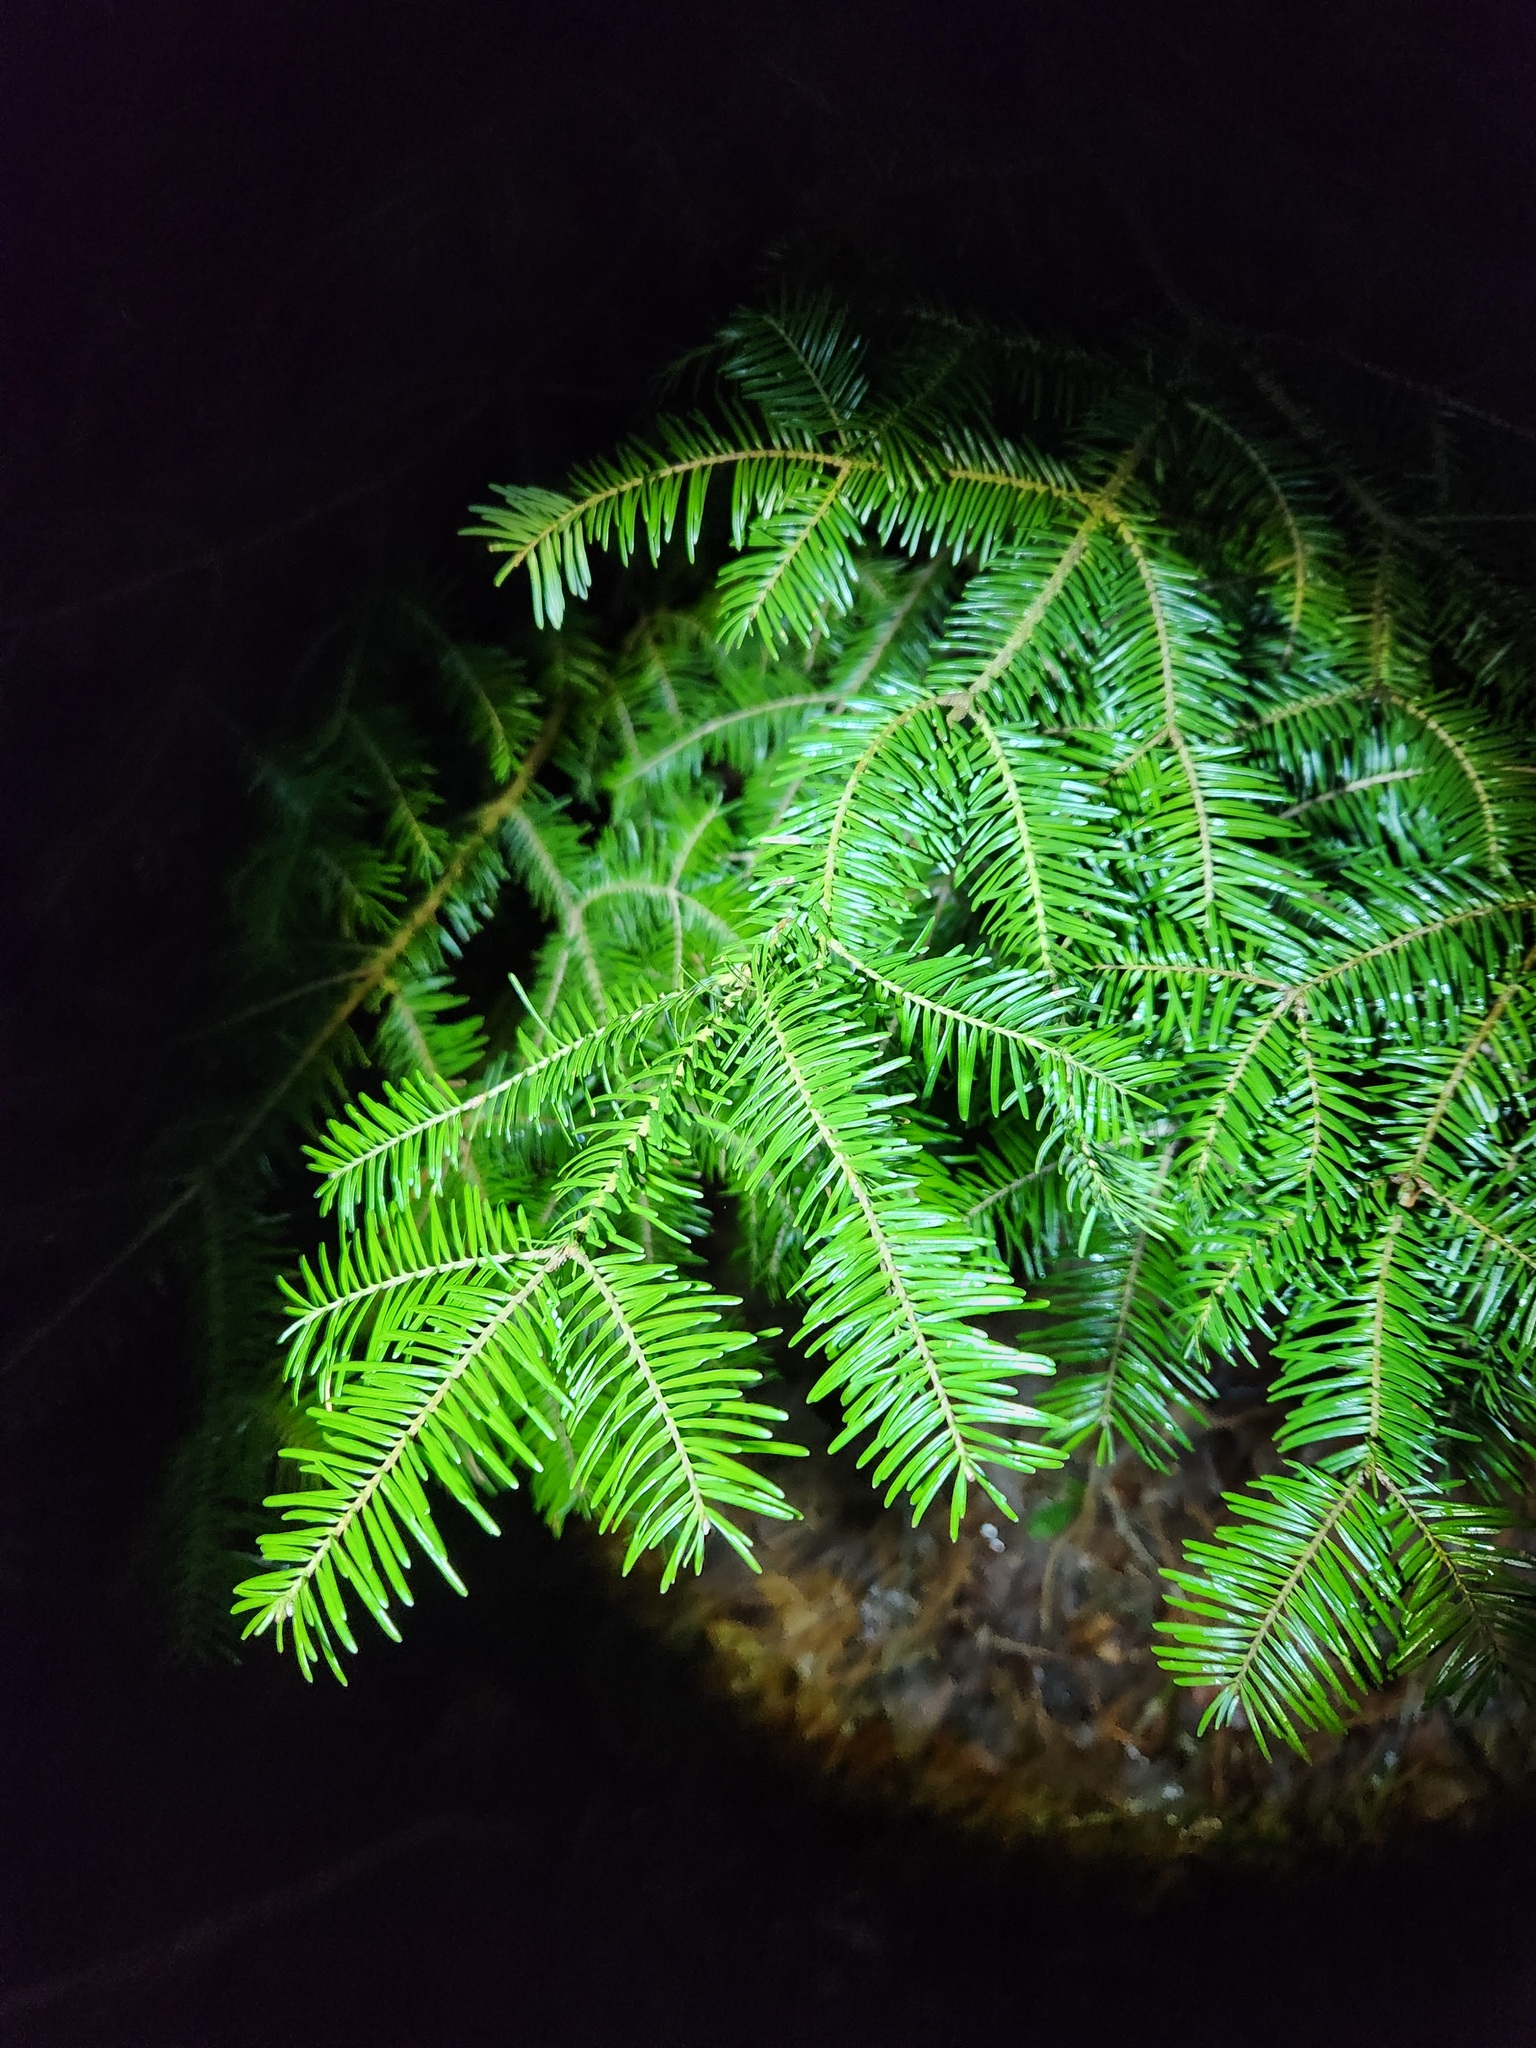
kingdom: Plantae
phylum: Tracheophyta
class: Pinopsida
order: Pinales
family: Pinaceae
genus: Abies
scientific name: Abies balsamea
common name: Balsam fir
